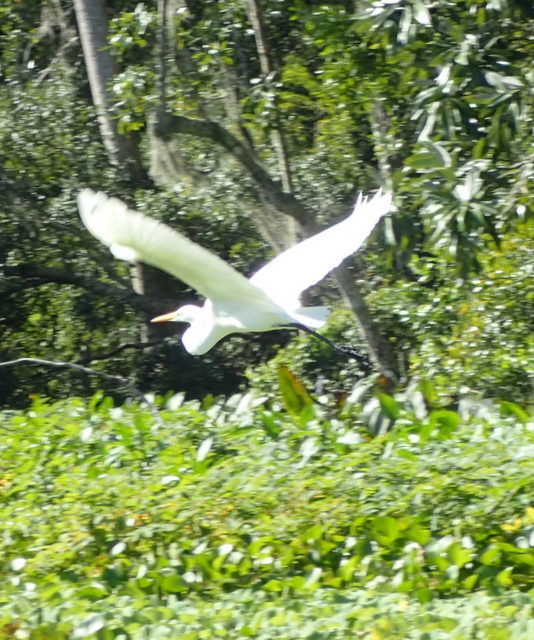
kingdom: Animalia
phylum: Chordata
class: Aves
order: Pelecaniformes
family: Ardeidae
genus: Ardea
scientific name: Ardea alba
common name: Great egret
